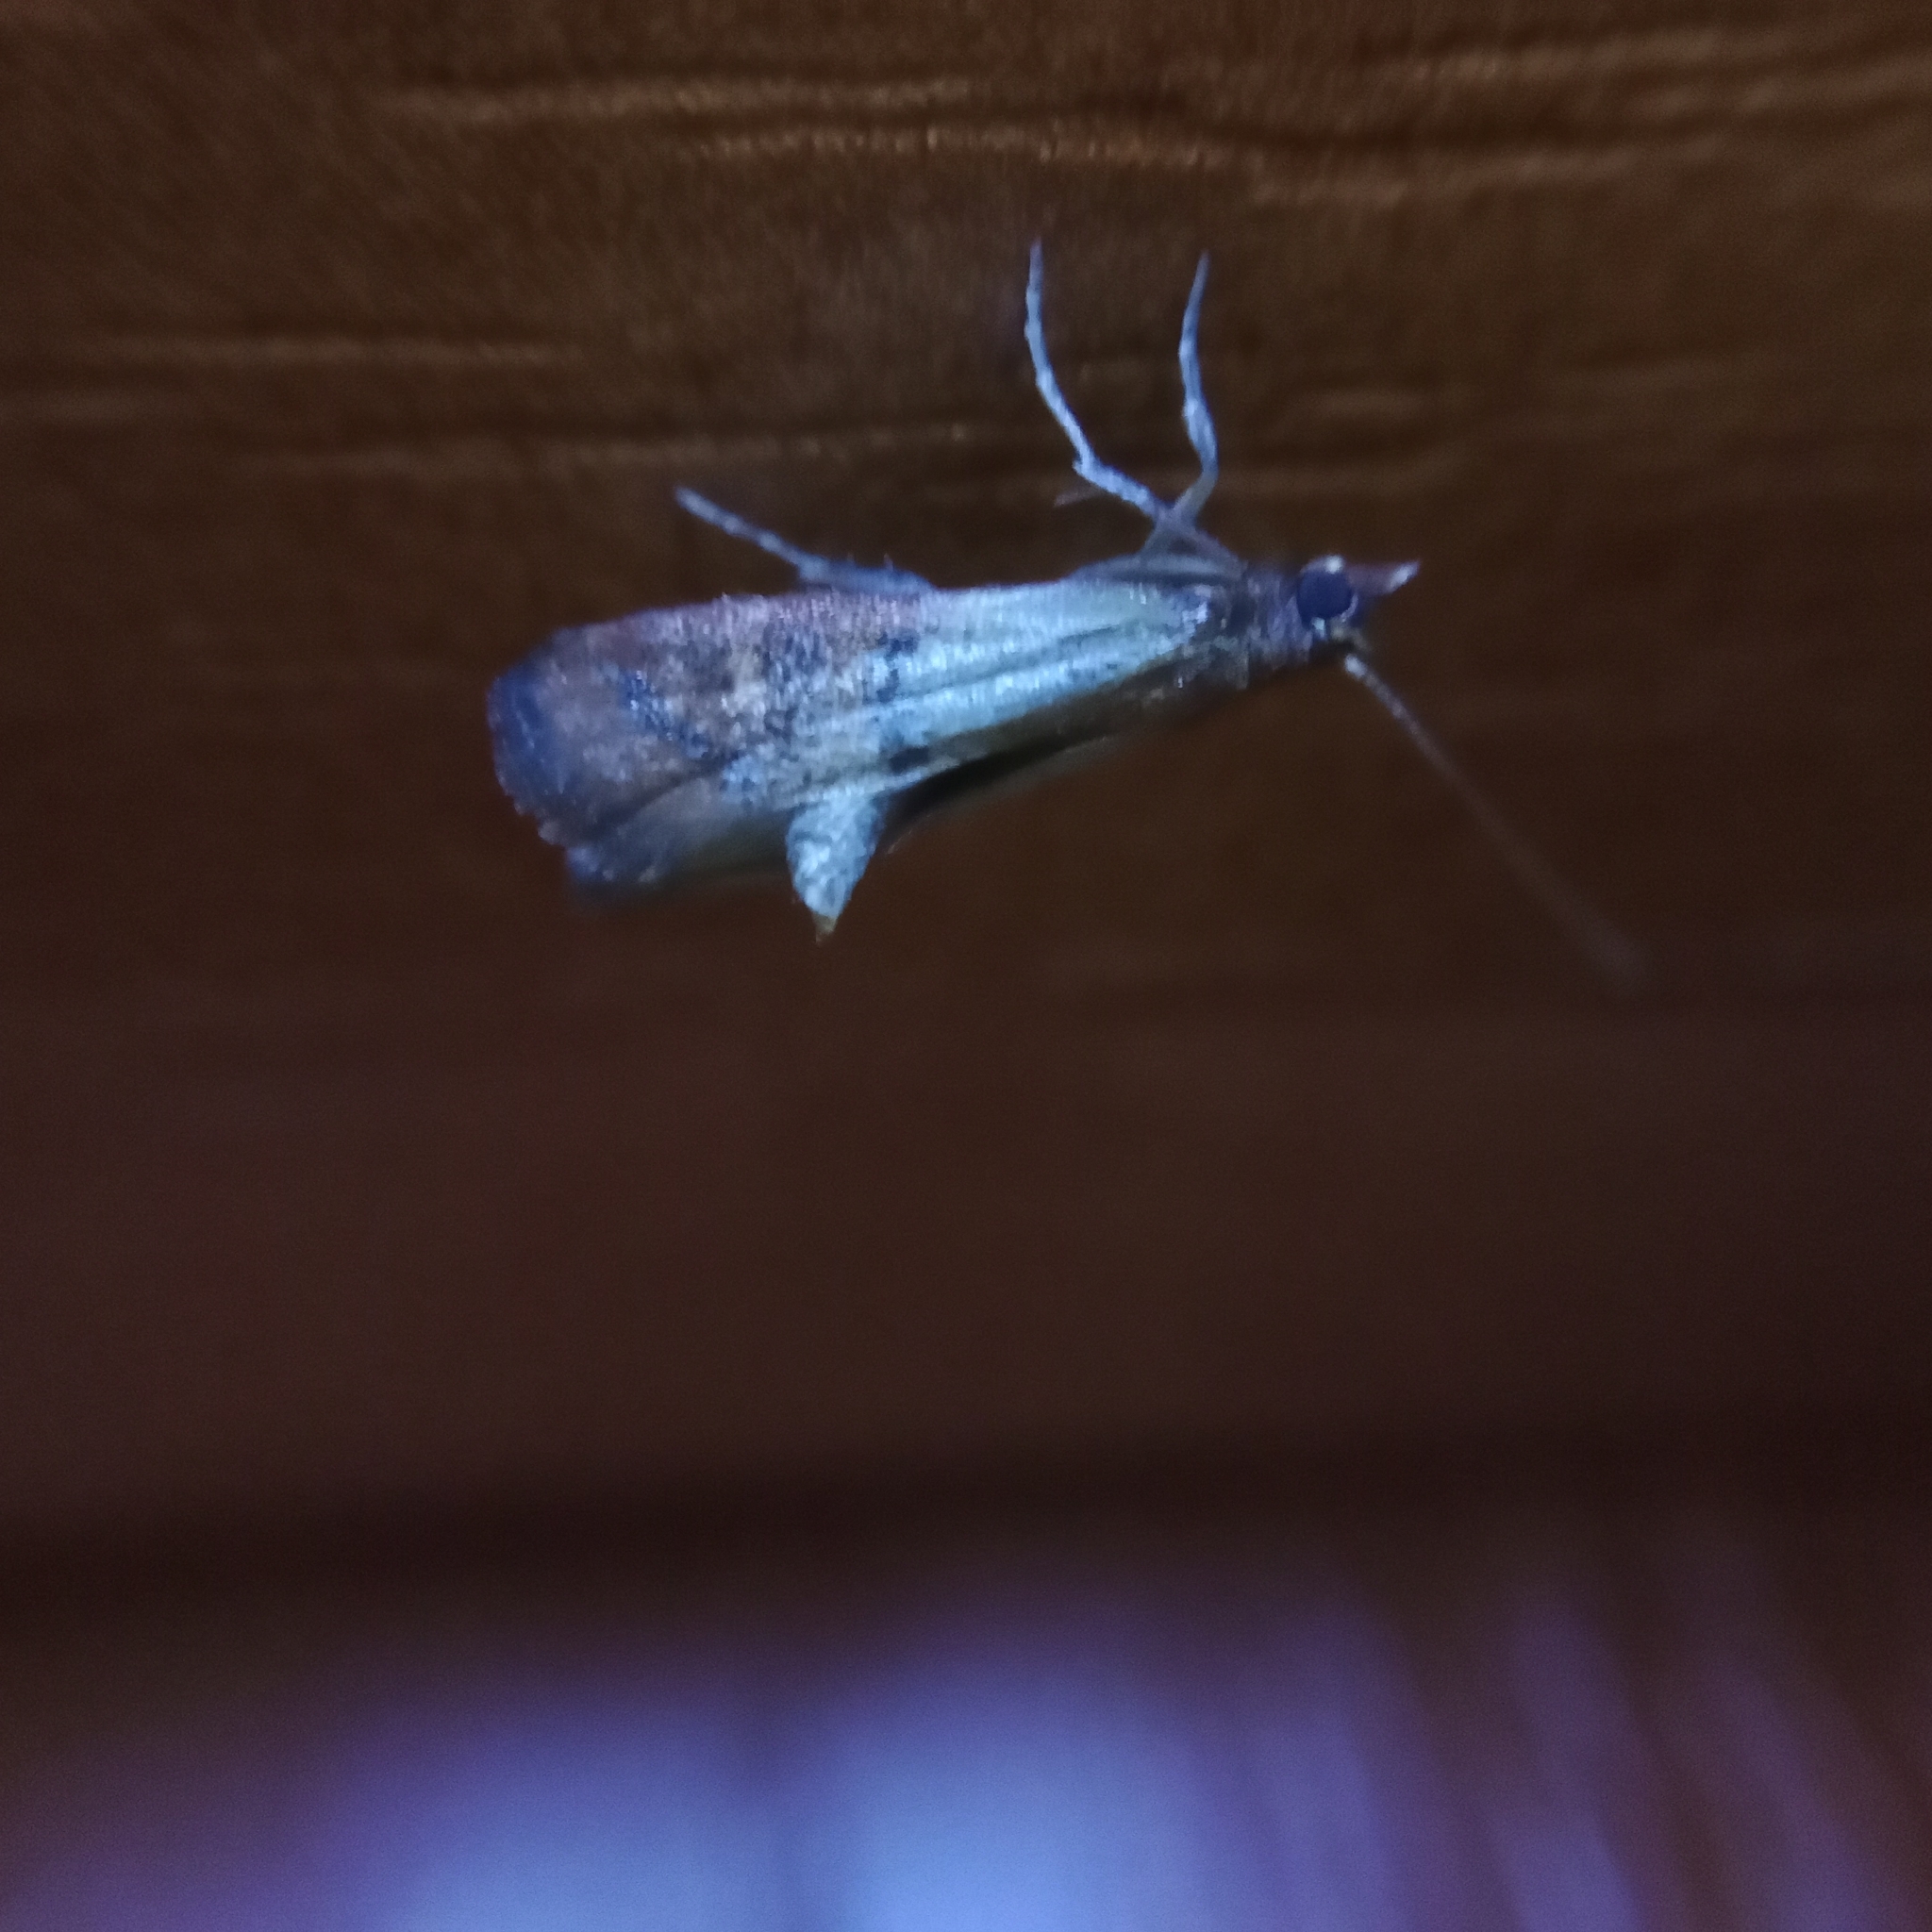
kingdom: Animalia
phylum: Arthropoda
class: Insecta
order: Lepidoptera
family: Pyralidae
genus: Plodia
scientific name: Plodia interpunctella
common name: Indian meal moth
